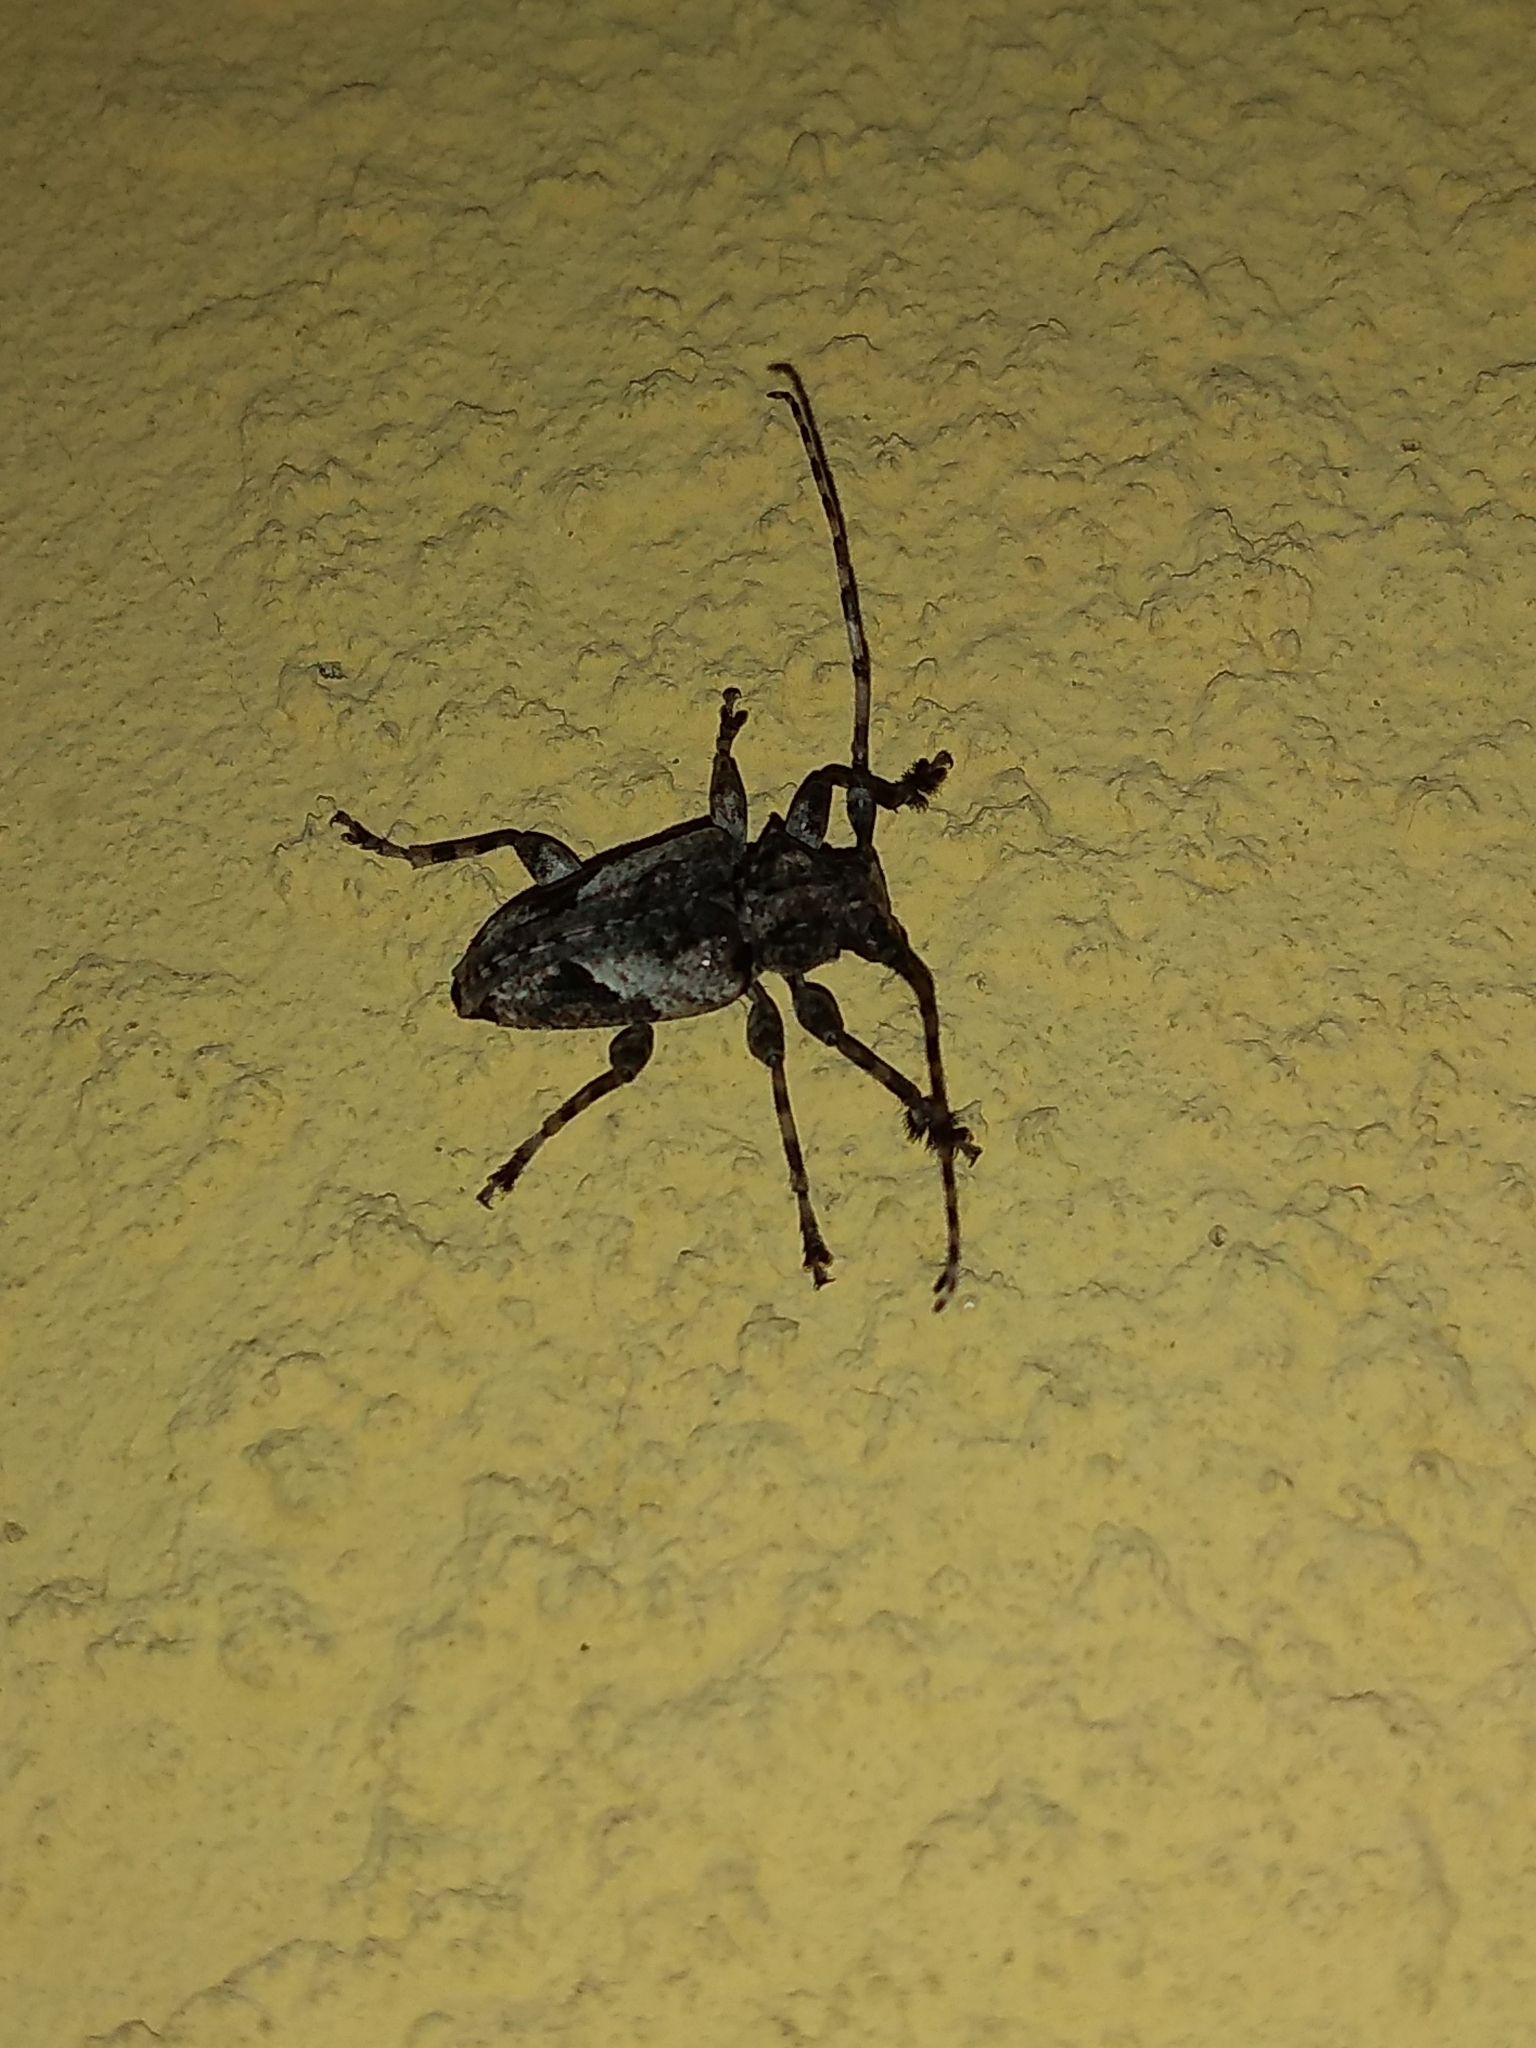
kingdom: Animalia
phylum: Arthropoda
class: Insecta
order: Coleoptera
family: Cerambycidae
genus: Psapharochrus
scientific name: Psapharochrus jaspideus
